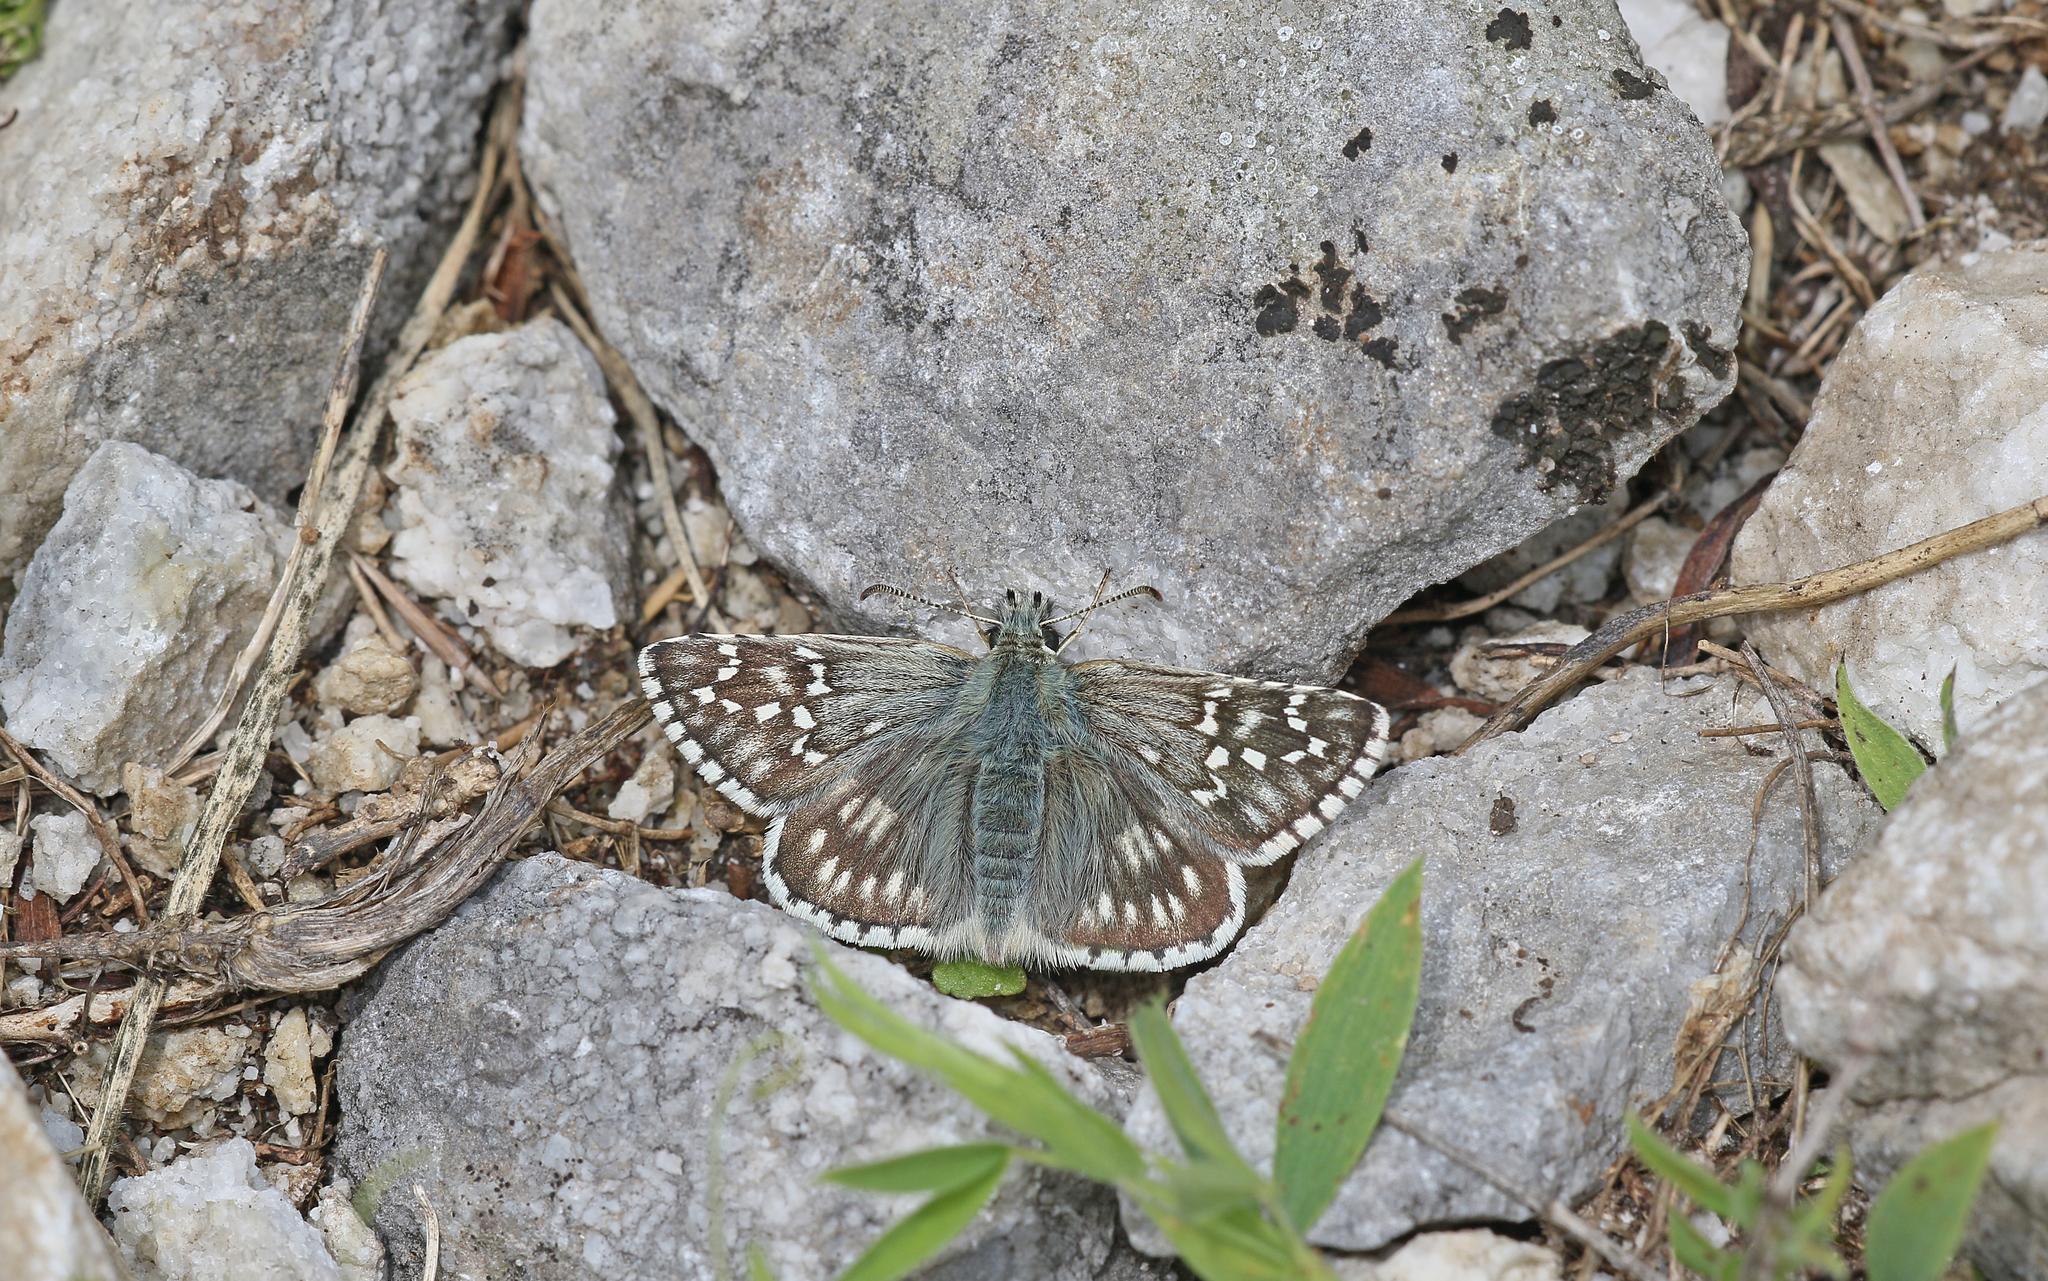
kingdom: Animalia
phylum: Arthropoda
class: Insecta
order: Lepidoptera
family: Hesperiidae
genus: Pyrgus
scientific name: Pyrgus fritillarius
